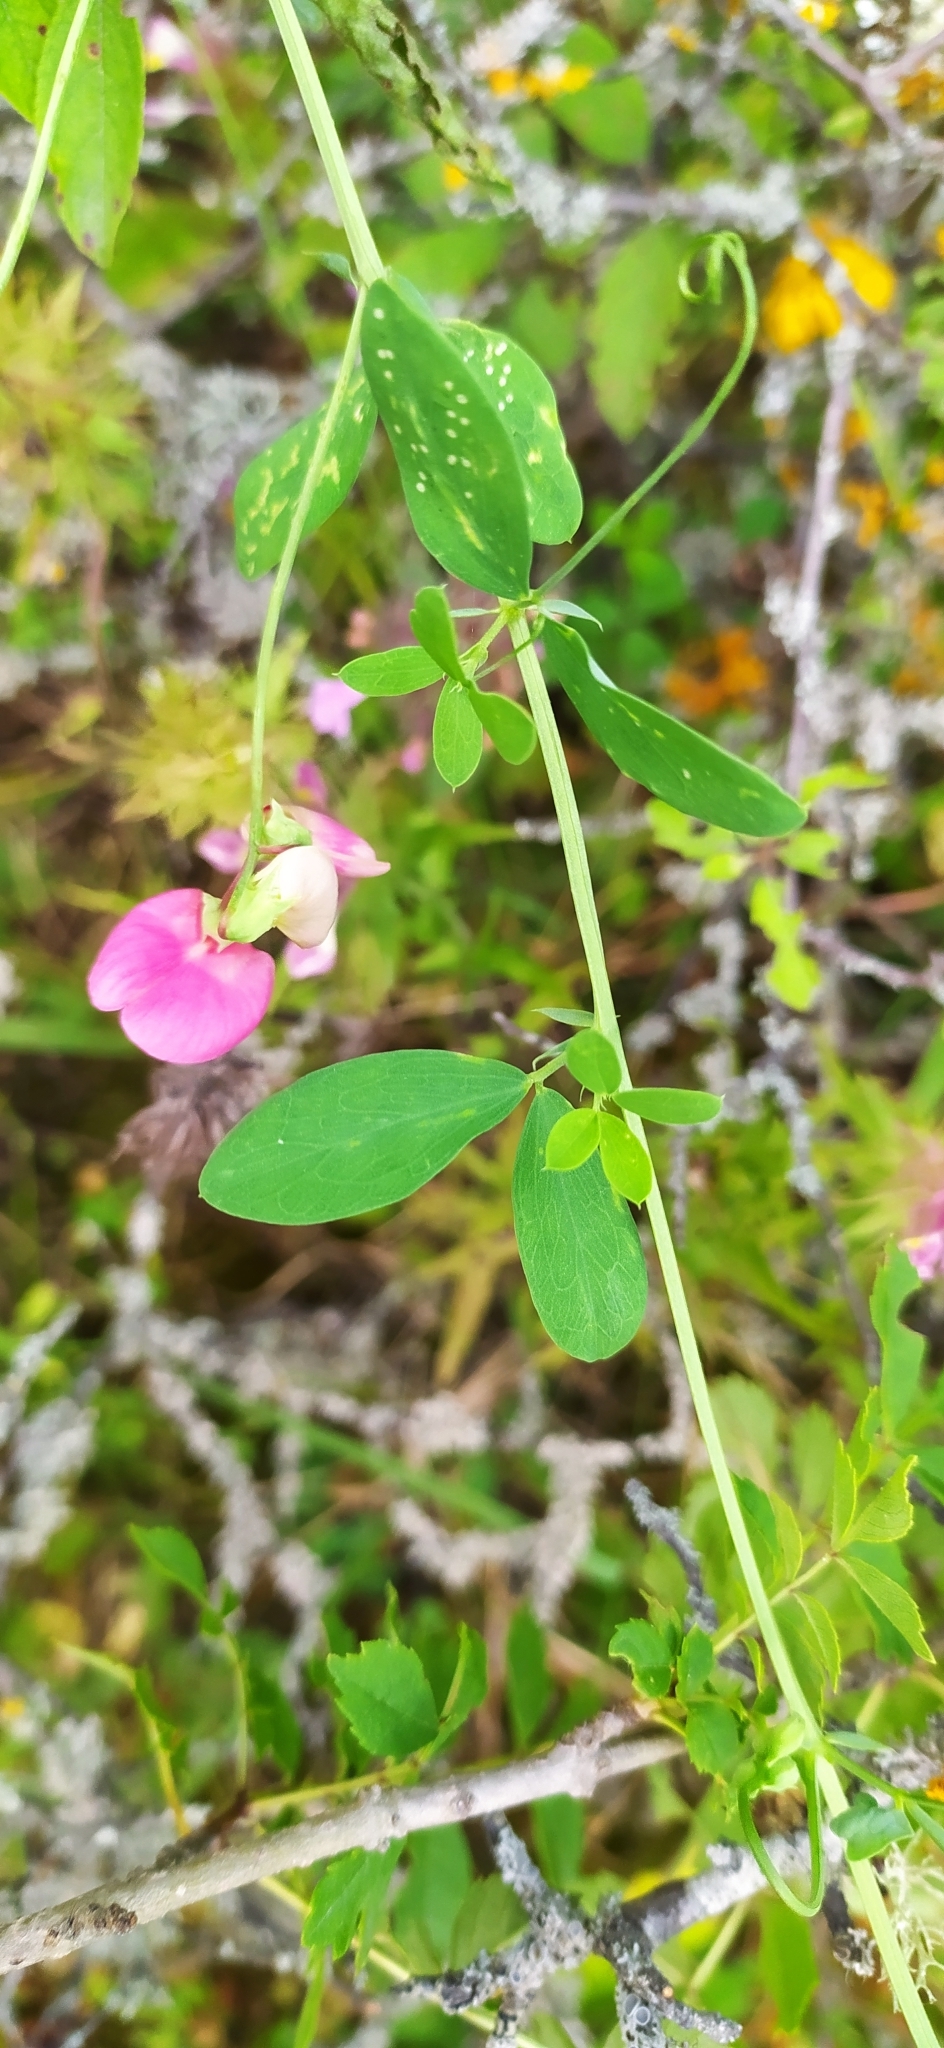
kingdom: Plantae
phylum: Tracheophyta
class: Magnoliopsida
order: Fabales
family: Fabaceae
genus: Lathyrus
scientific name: Lathyrus tuberosus
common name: Tuberous pea
